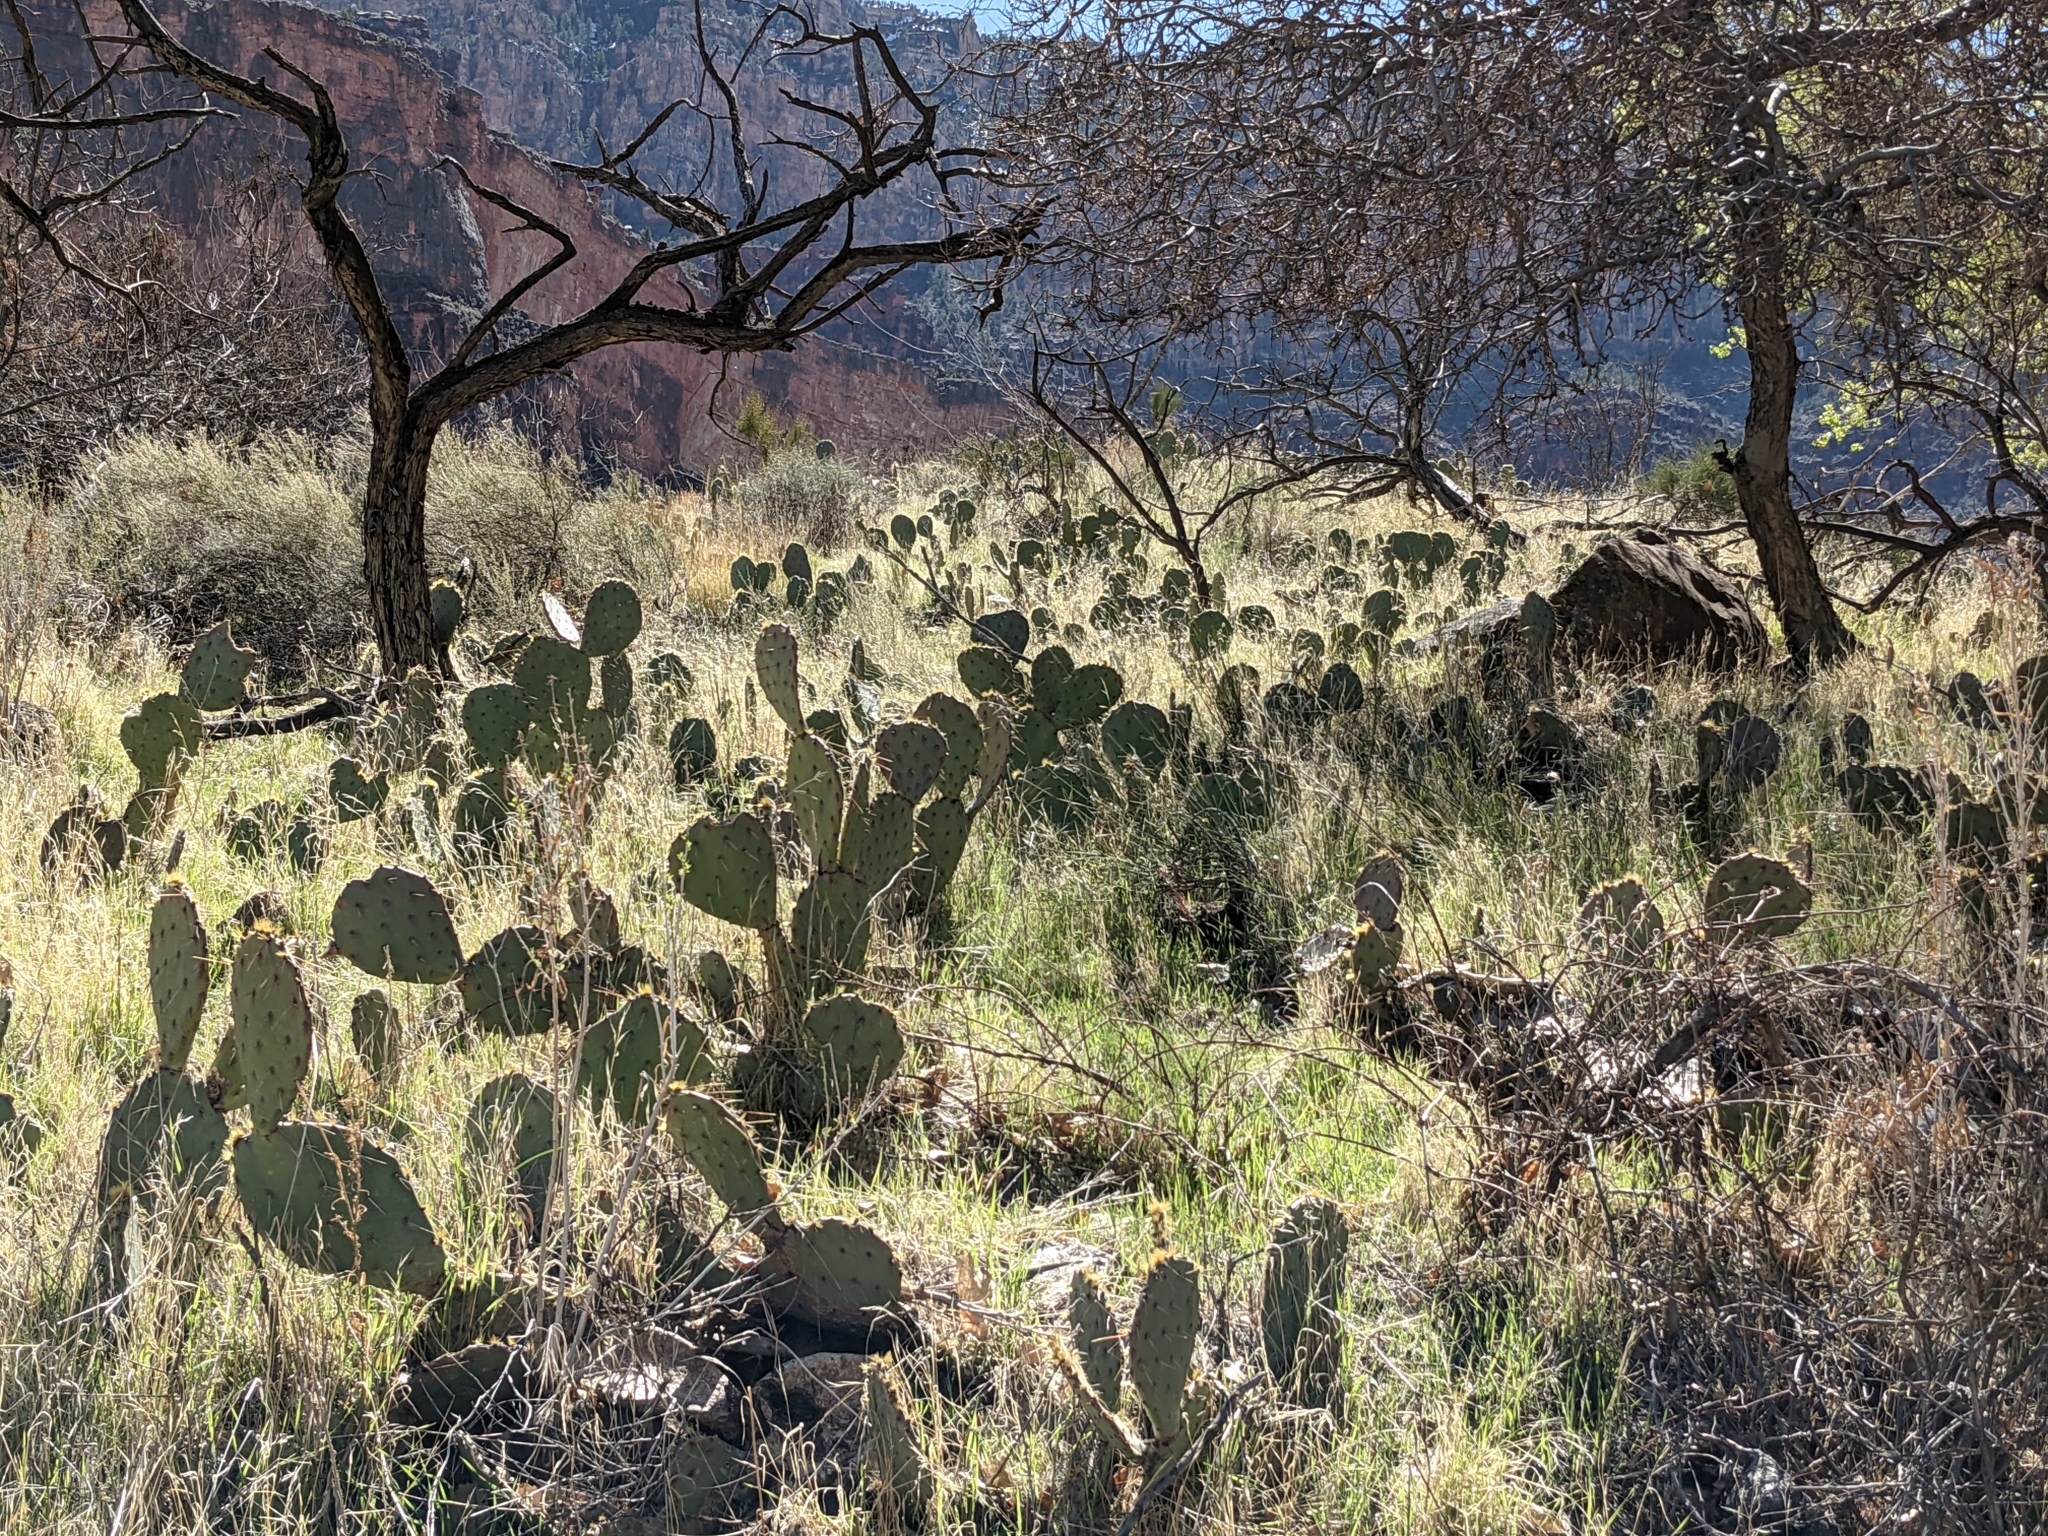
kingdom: Plantae
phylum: Tracheophyta
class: Magnoliopsida
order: Caryophyllales
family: Cactaceae
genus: Opuntia
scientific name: Opuntia phaeacantha
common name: New mexico prickly-pear
